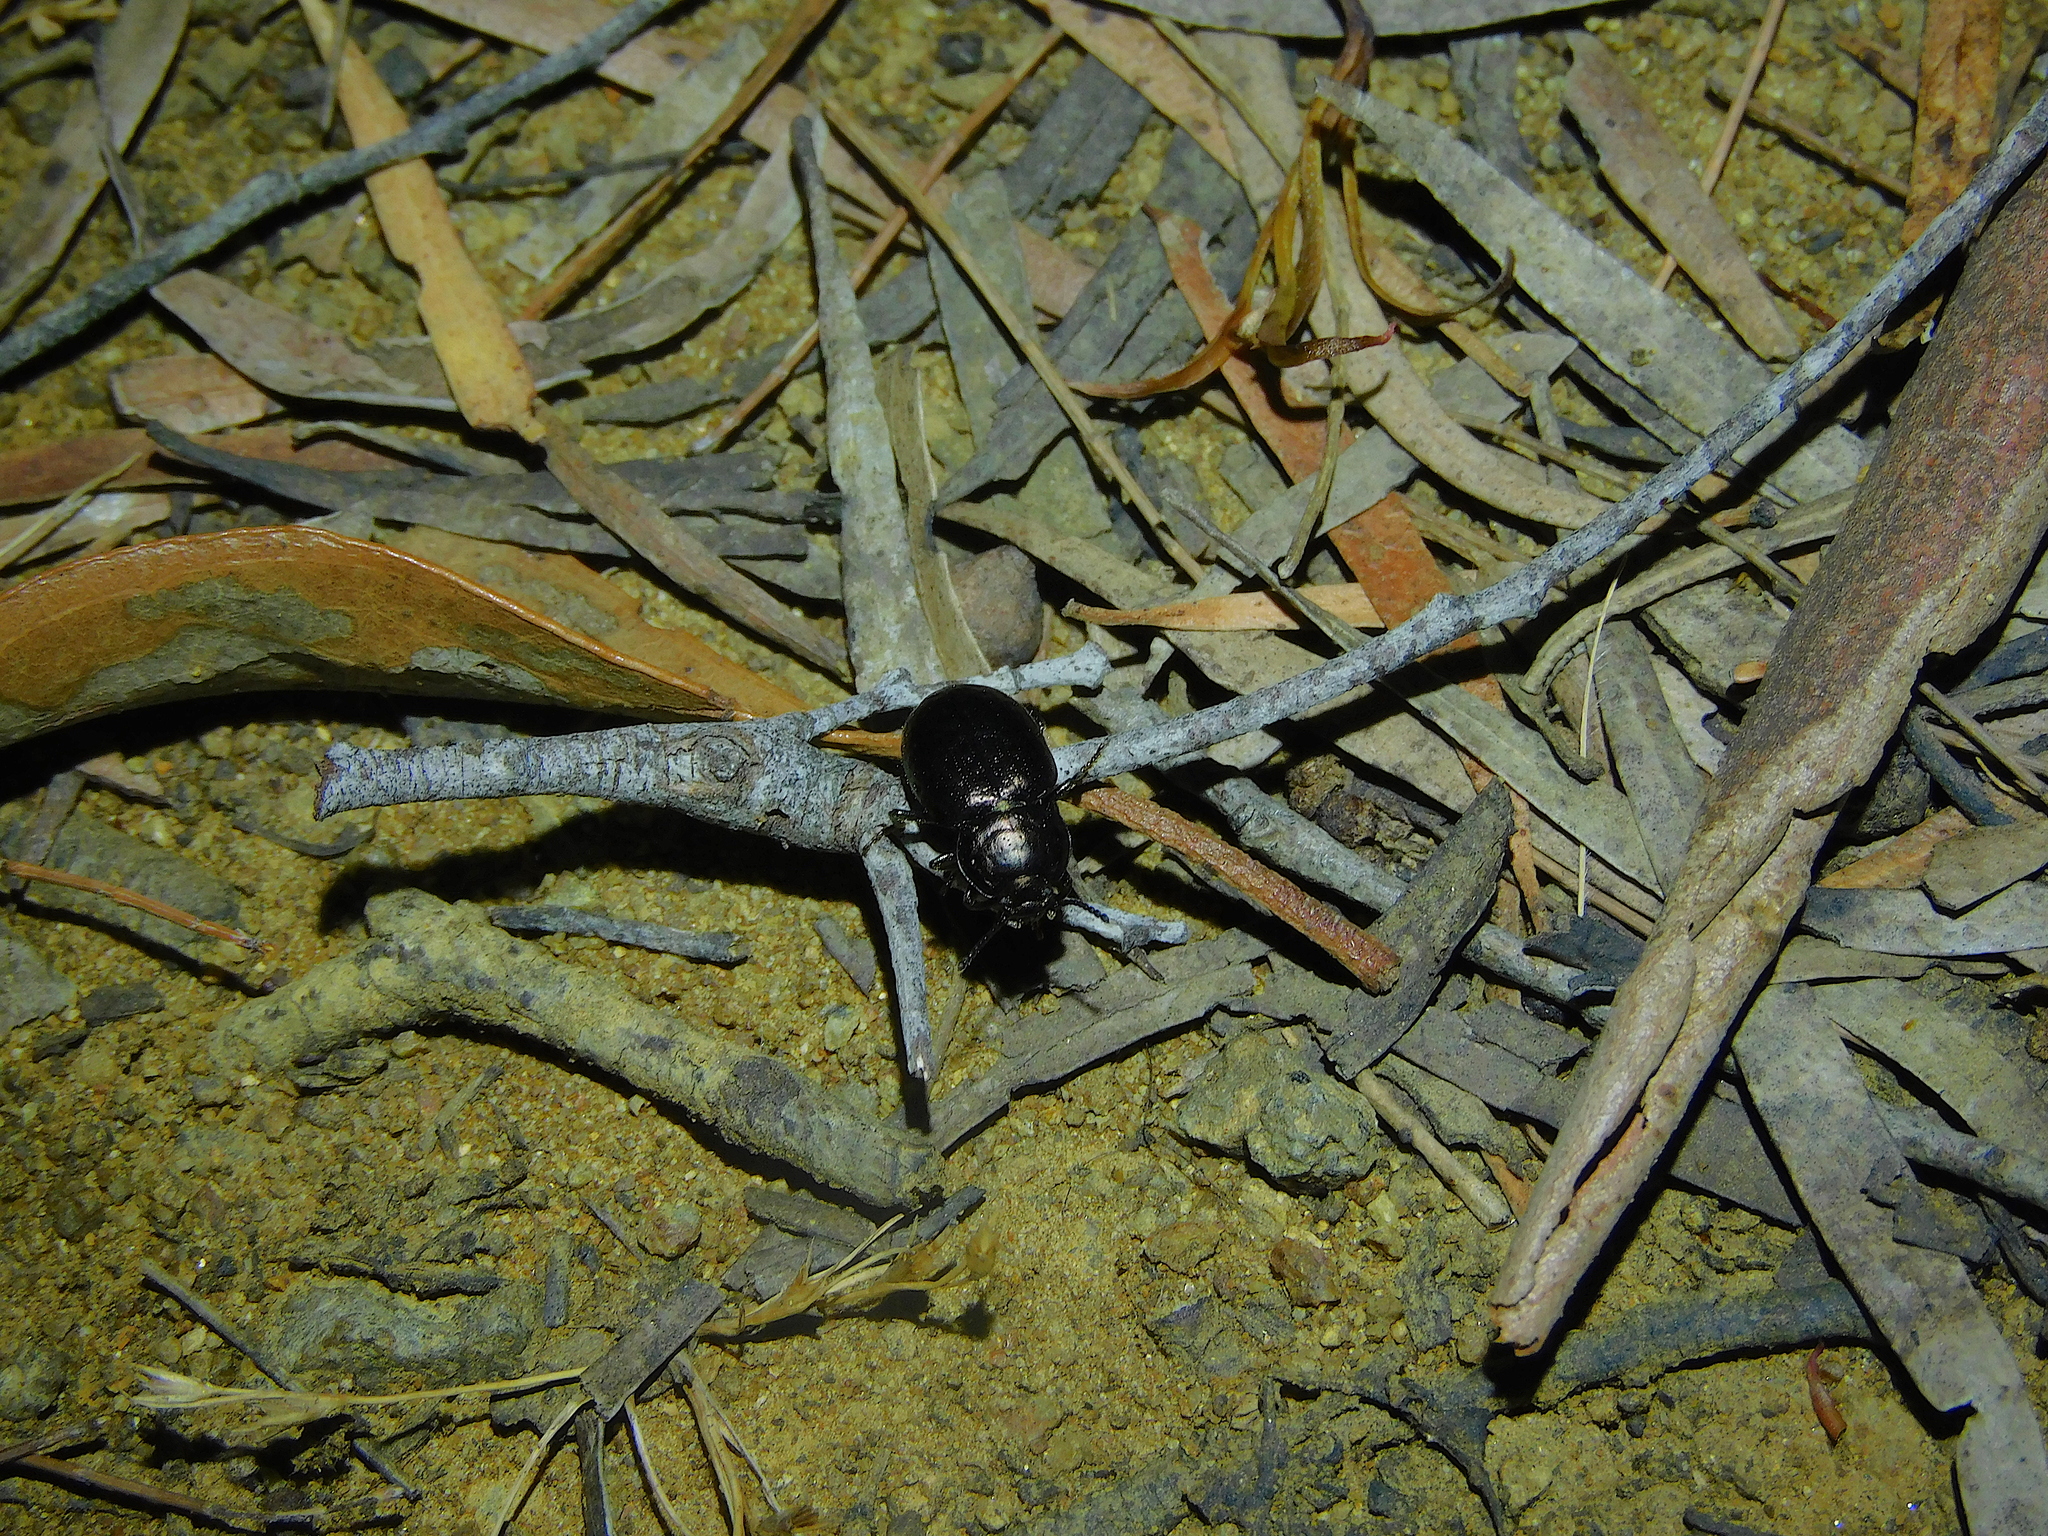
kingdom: Animalia
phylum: Arthropoda
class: Insecta
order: Coleoptera
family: Tenebrionidae
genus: Adelium
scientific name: Adelium abbreviatum
